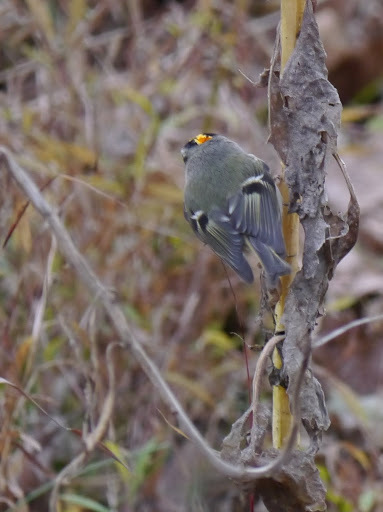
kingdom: Animalia
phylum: Chordata
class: Aves
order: Passeriformes
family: Regulidae
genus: Regulus
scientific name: Regulus satrapa
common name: Golden-crowned kinglet
